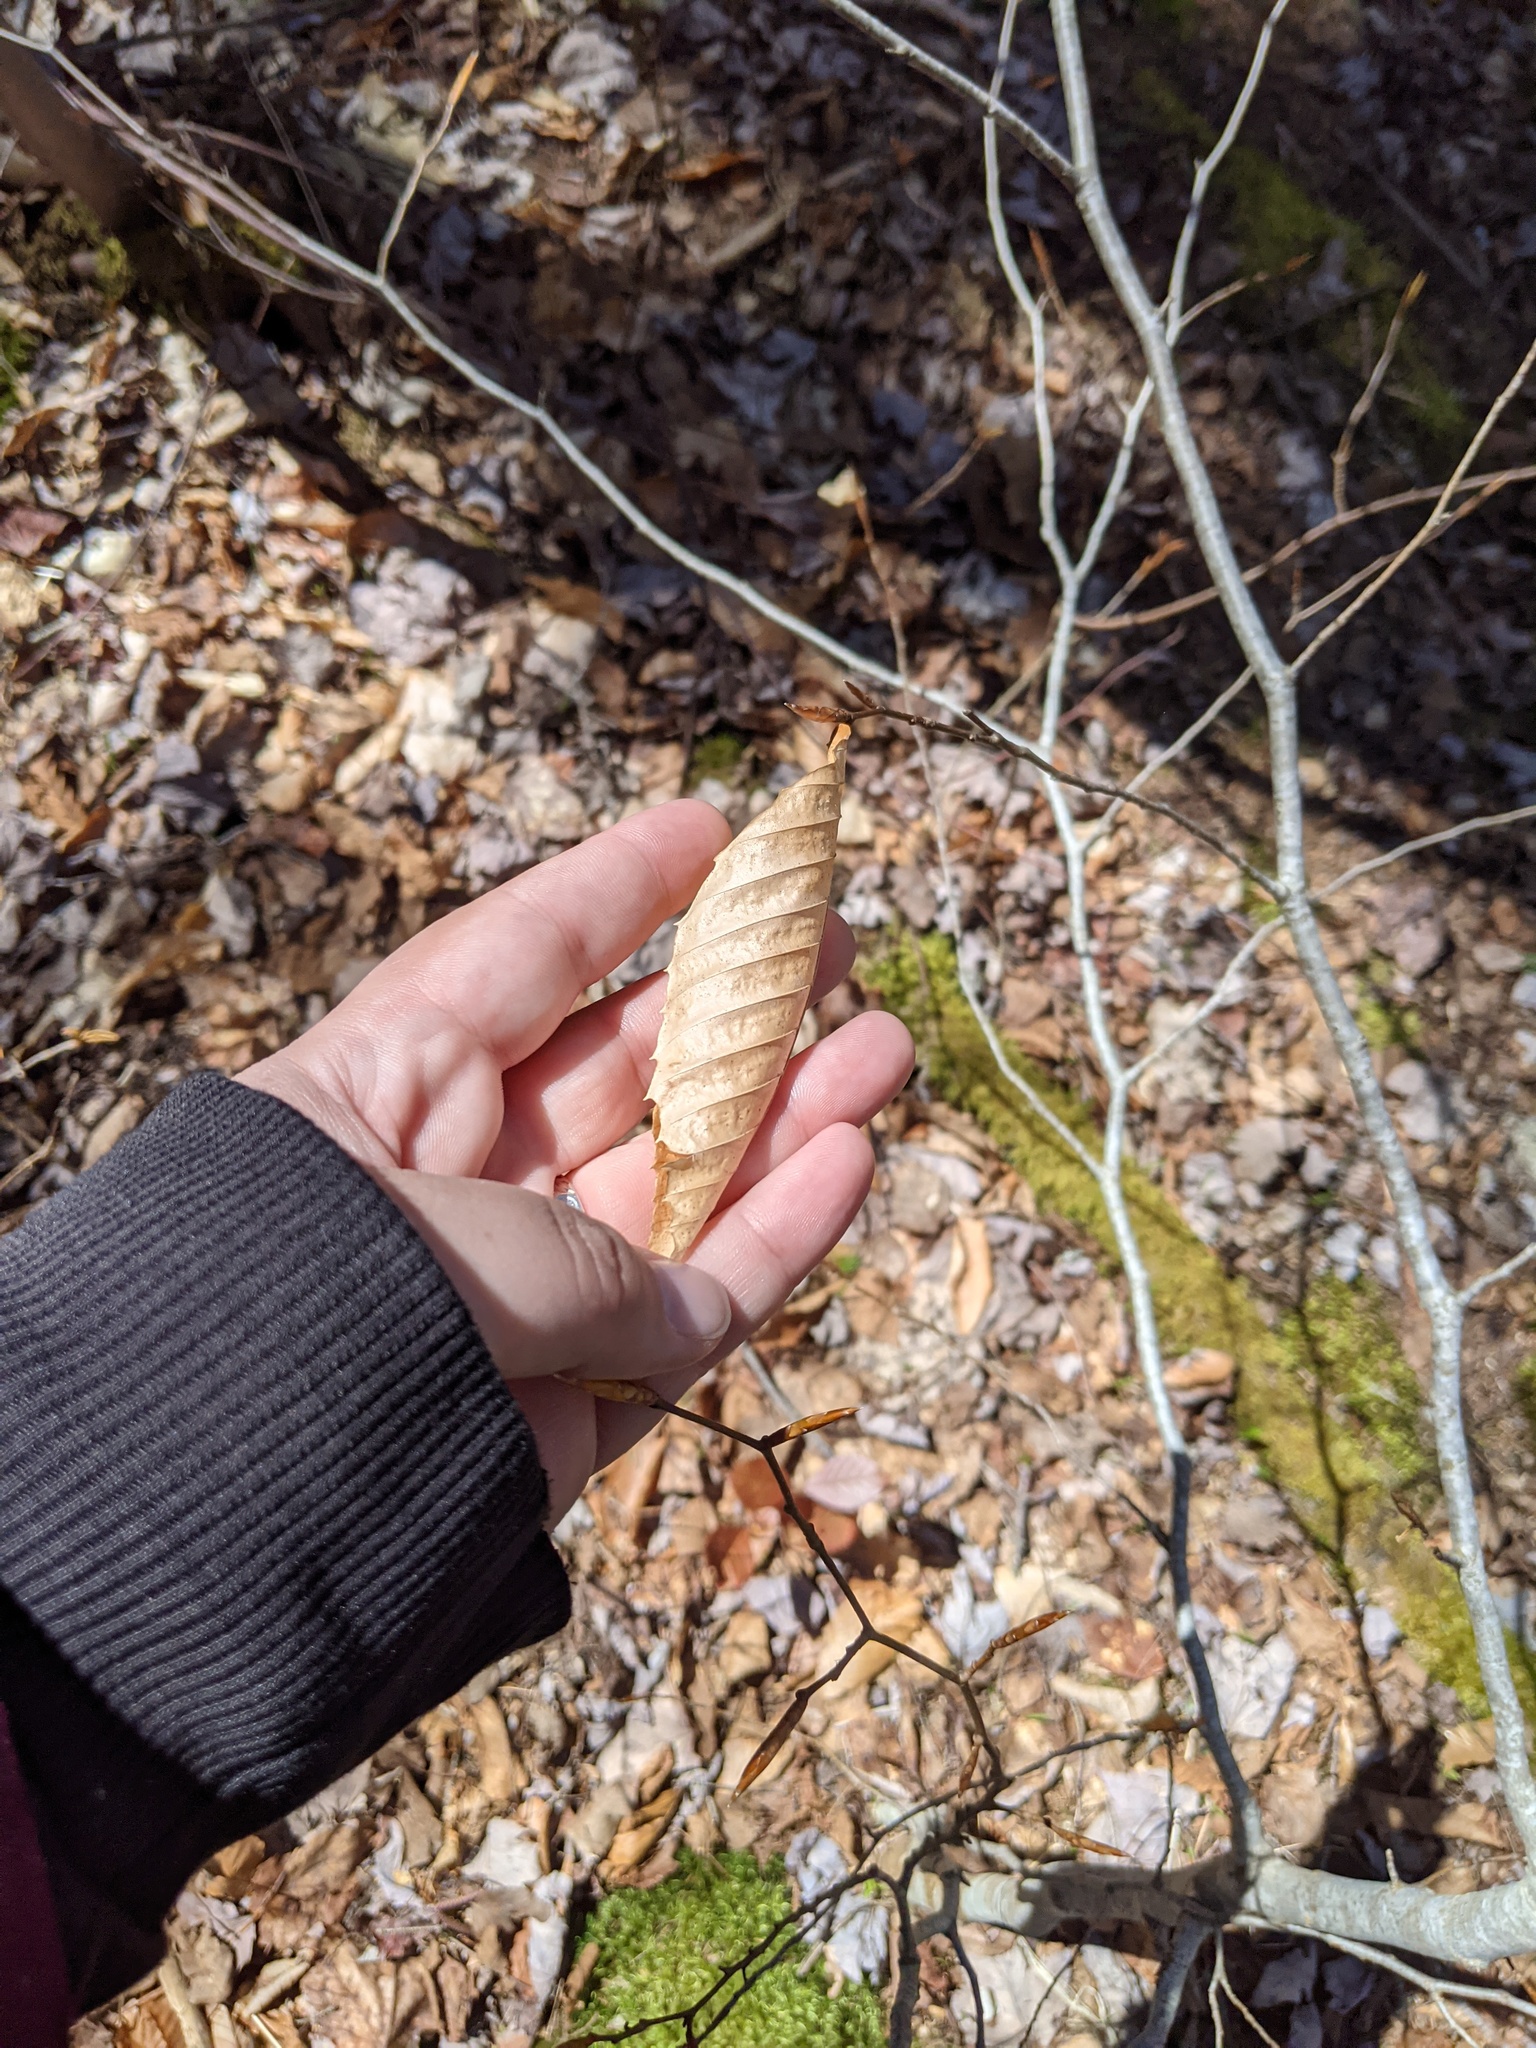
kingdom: Plantae
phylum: Tracheophyta
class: Magnoliopsida
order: Fagales
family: Fagaceae
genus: Fagus
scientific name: Fagus grandifolia
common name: American beech
